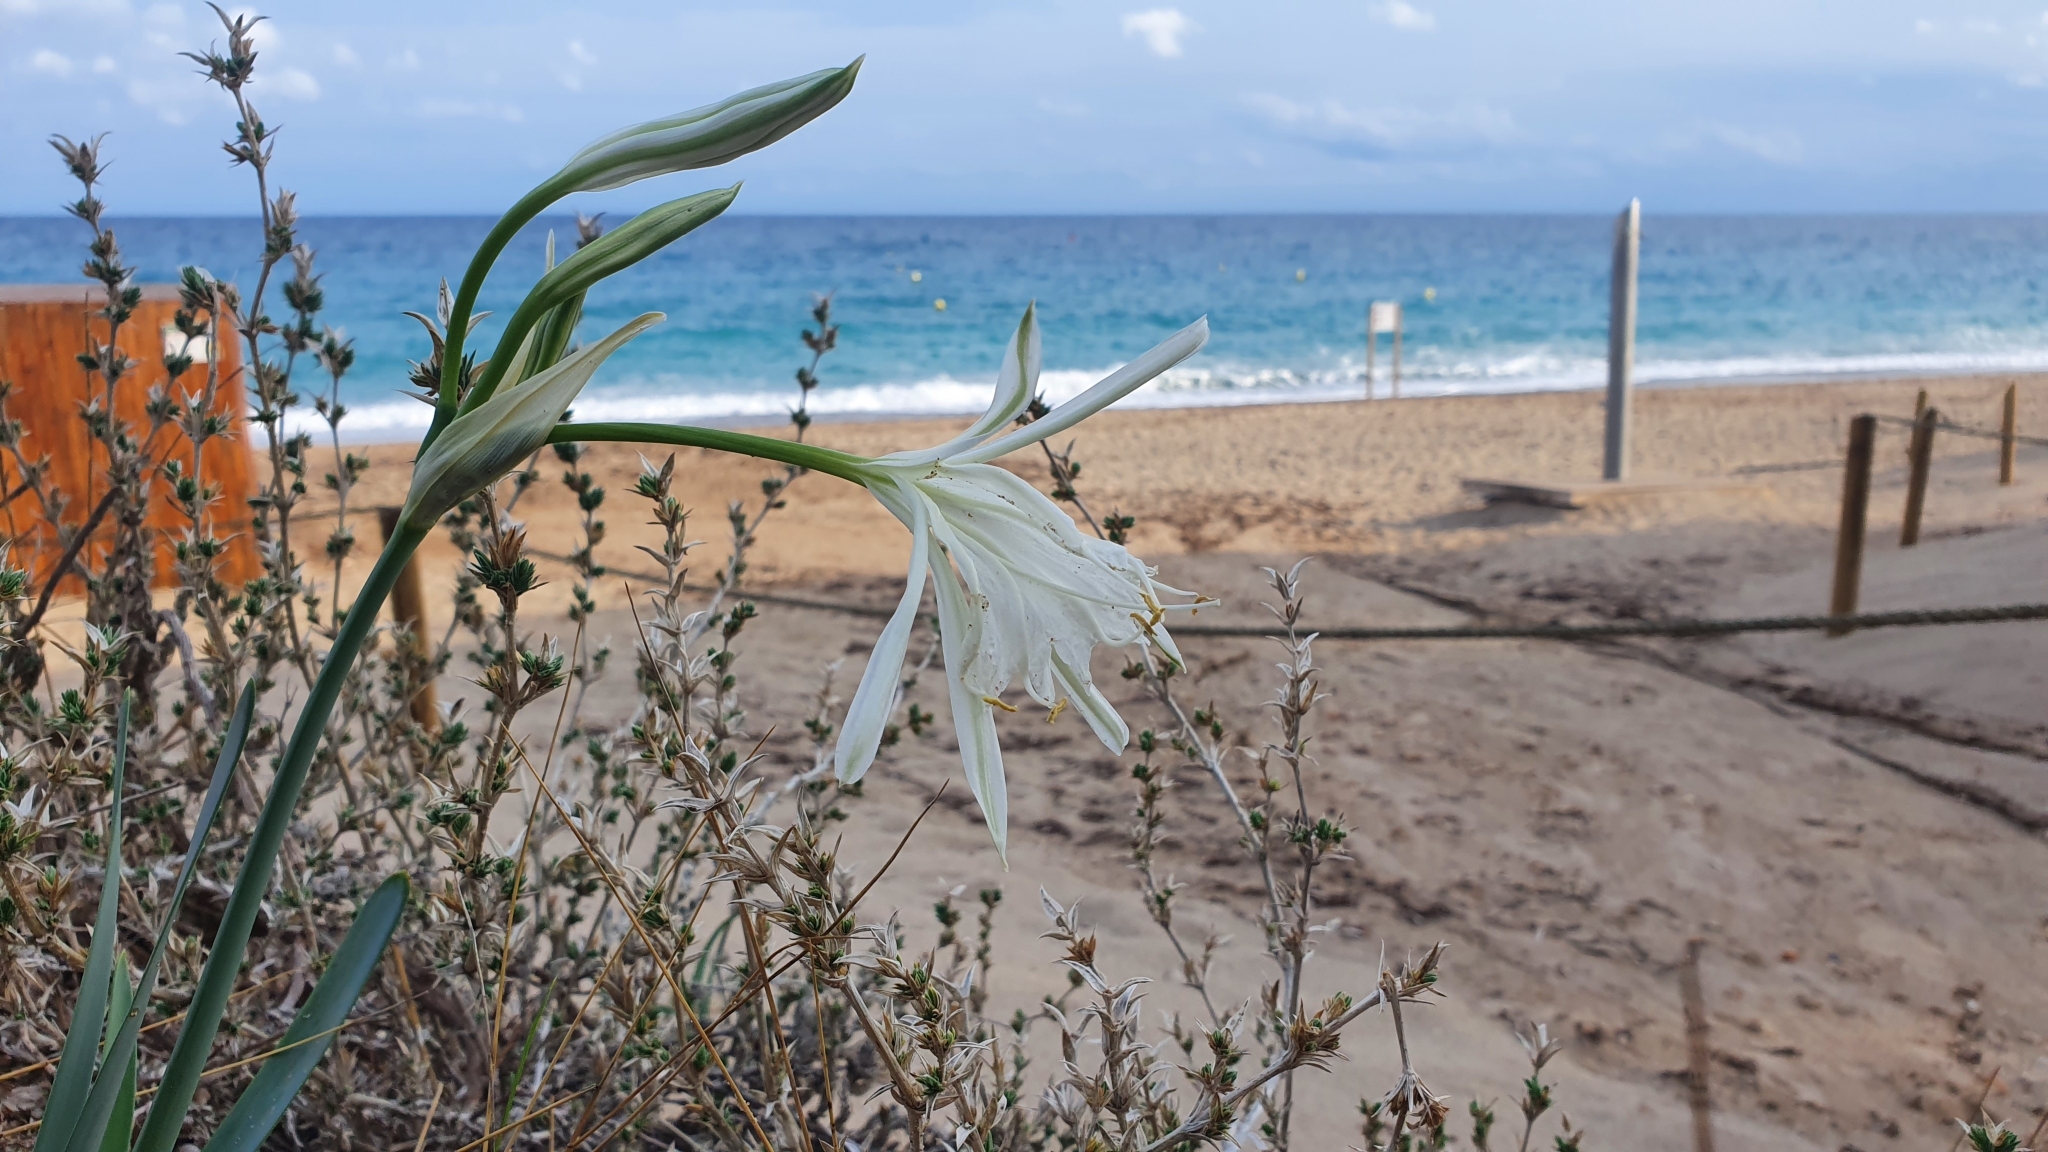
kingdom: Plantae
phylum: Tracheophyta
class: Liliopsida
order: Asparagales
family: Amaryllidaceae
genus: Pancratium
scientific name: Pancratium maritimum
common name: Sea-daffodil
